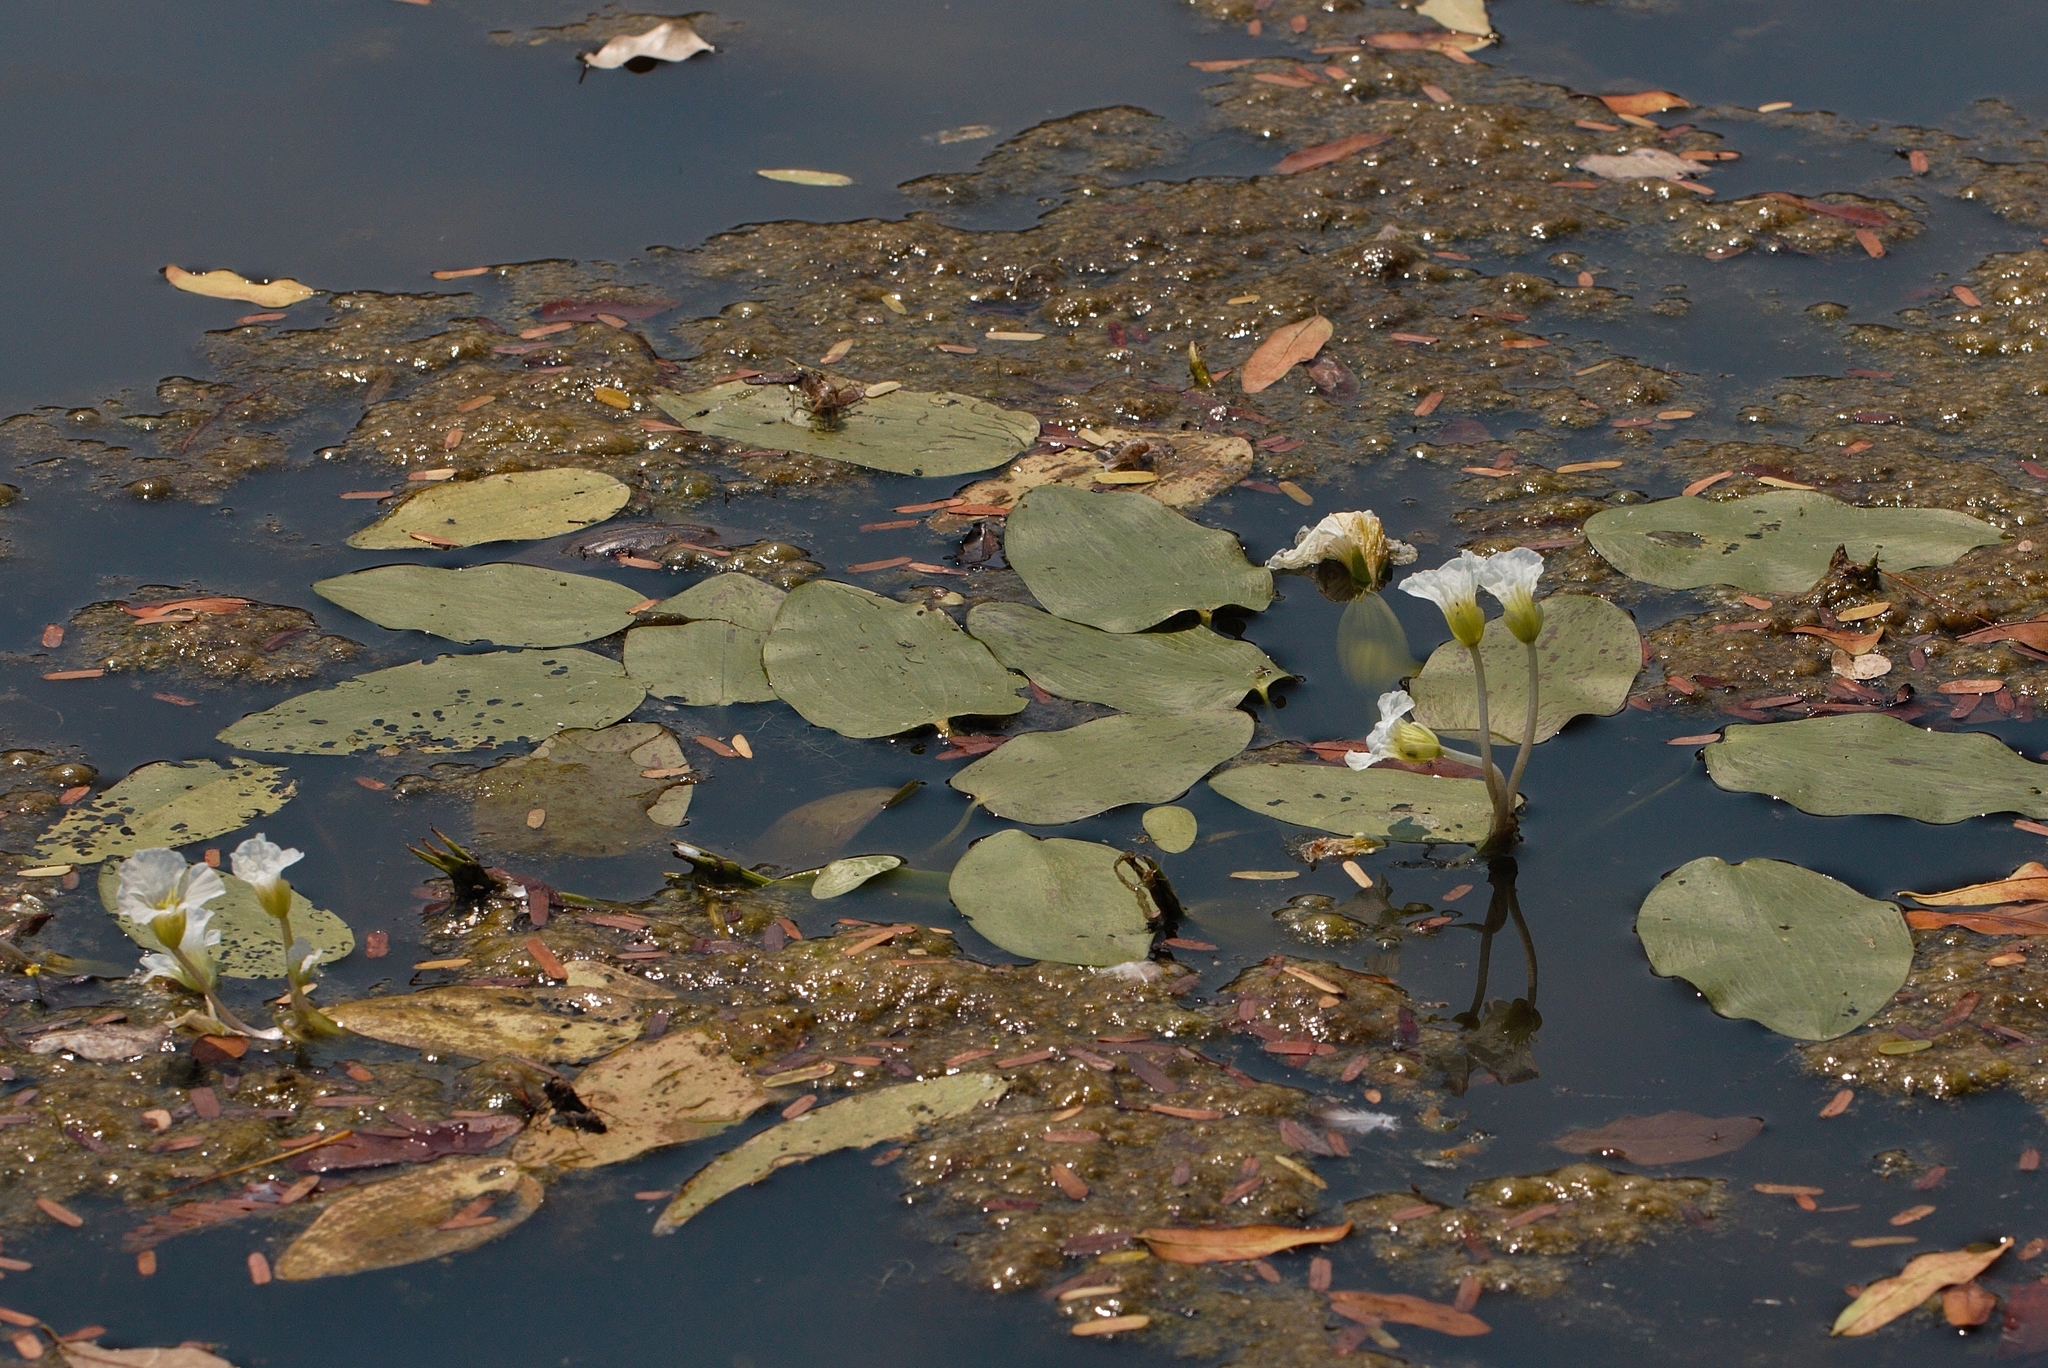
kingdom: Plantae
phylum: Tracheophyta
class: Liliopsida
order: Alismatales
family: Hydrocharitaceae
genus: Ottelia
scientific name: Ottelia exserta
